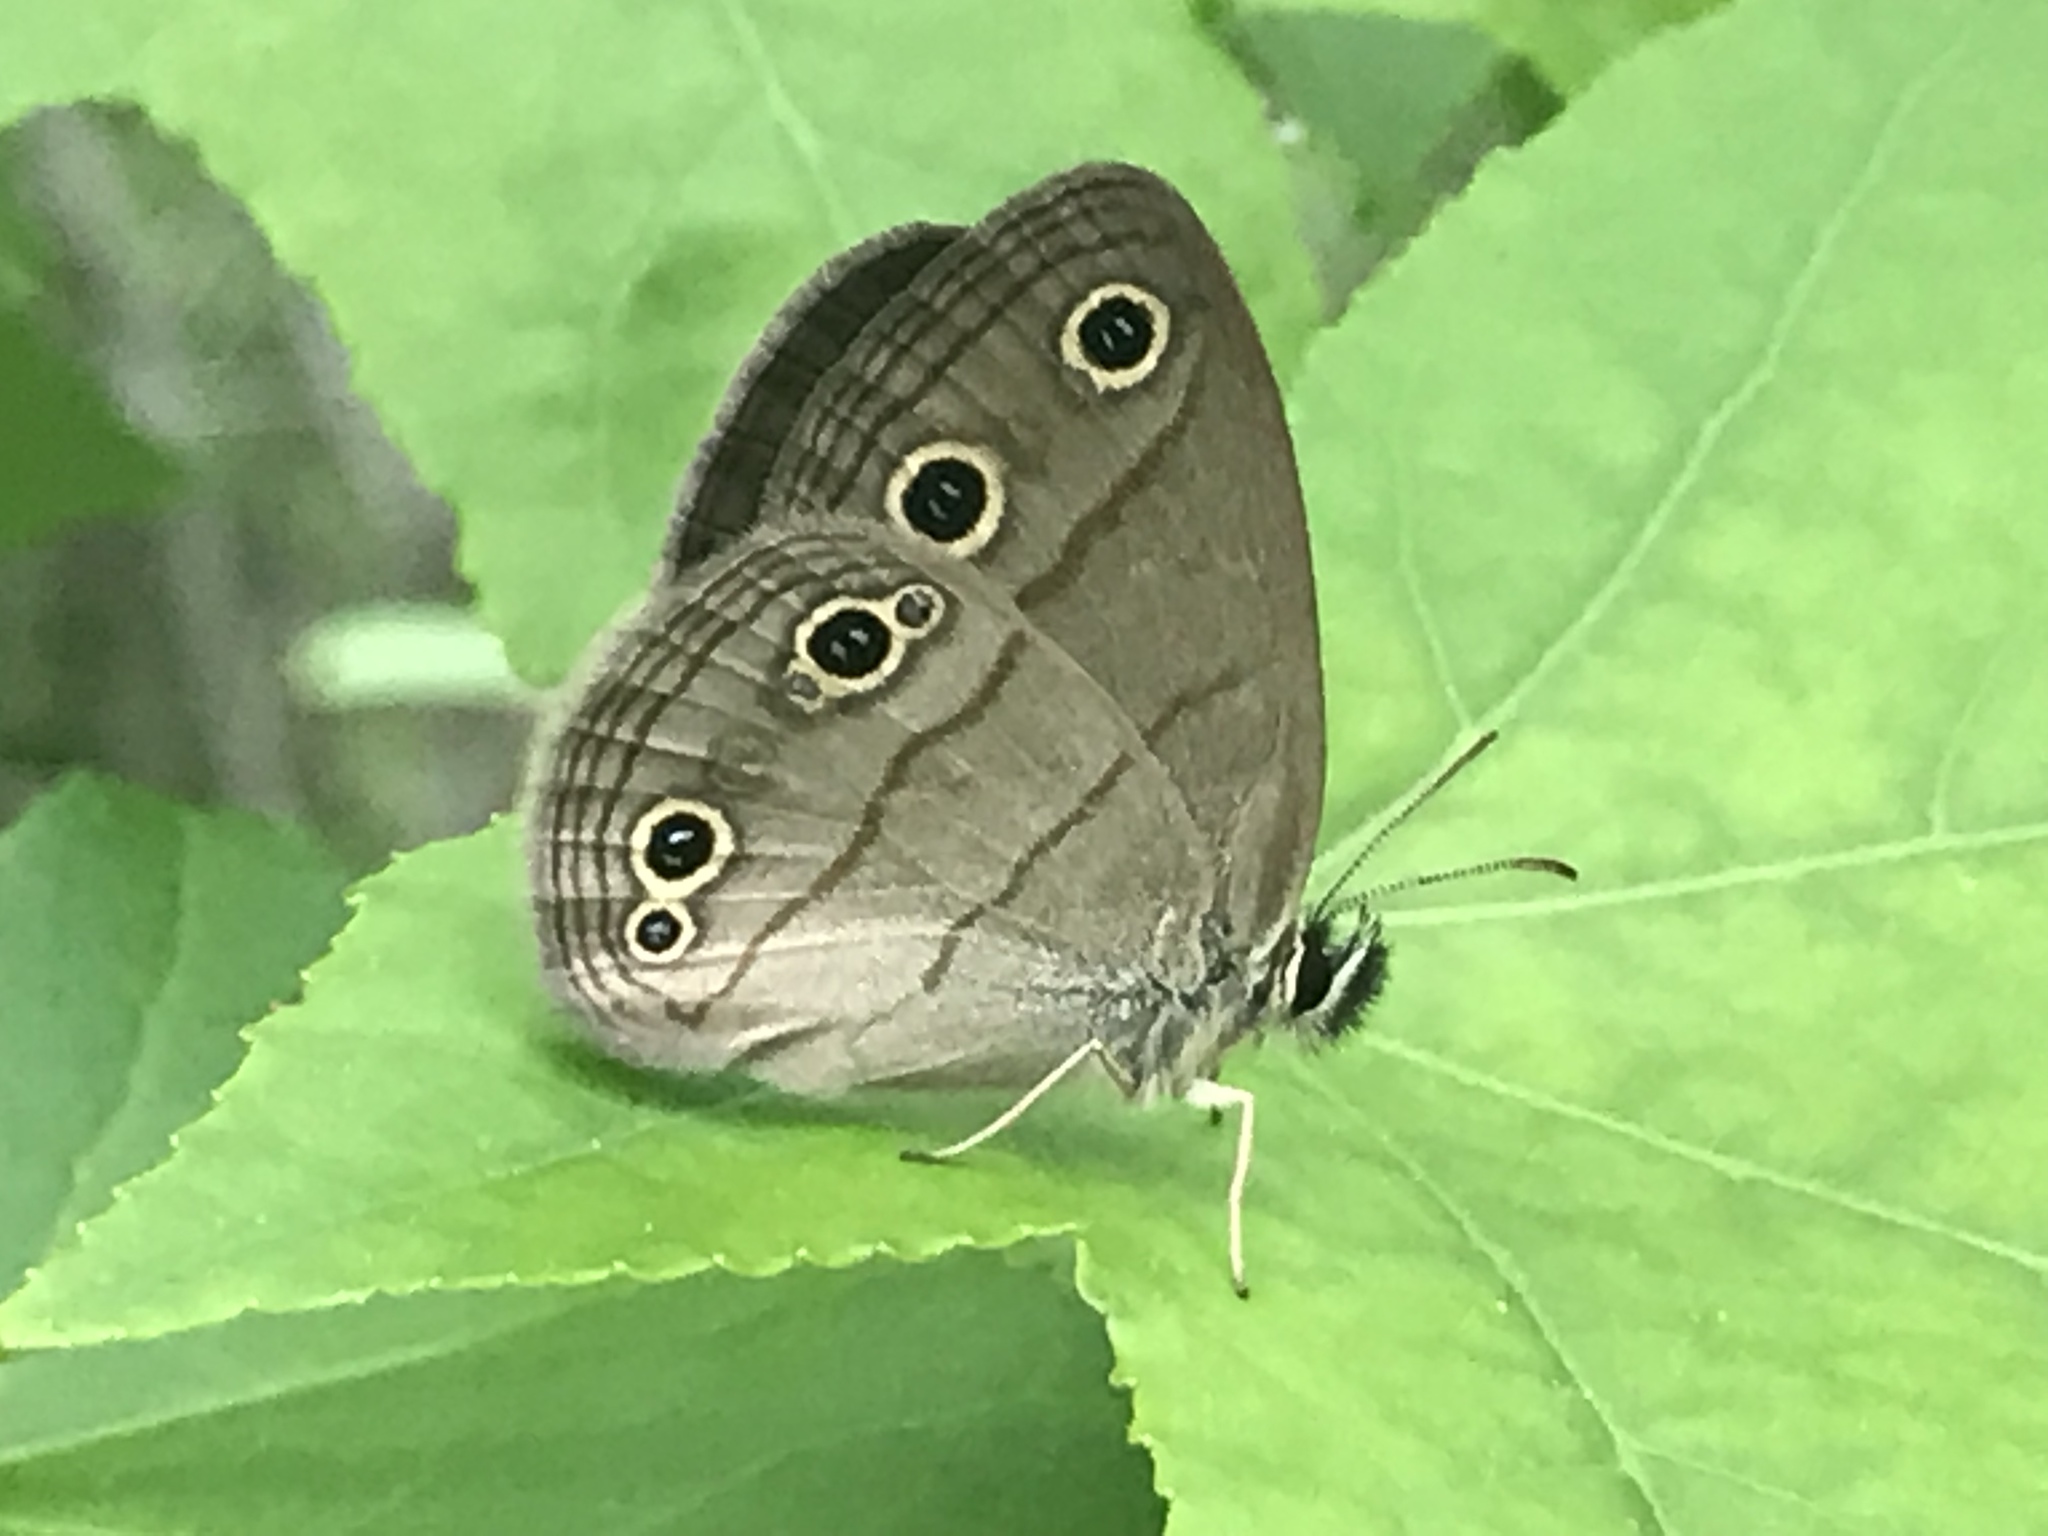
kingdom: Animalia
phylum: Arthropoda
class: Insecta
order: Lepidoptera
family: Nymphalidae
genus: Euptychia
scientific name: Euptychia cymela
